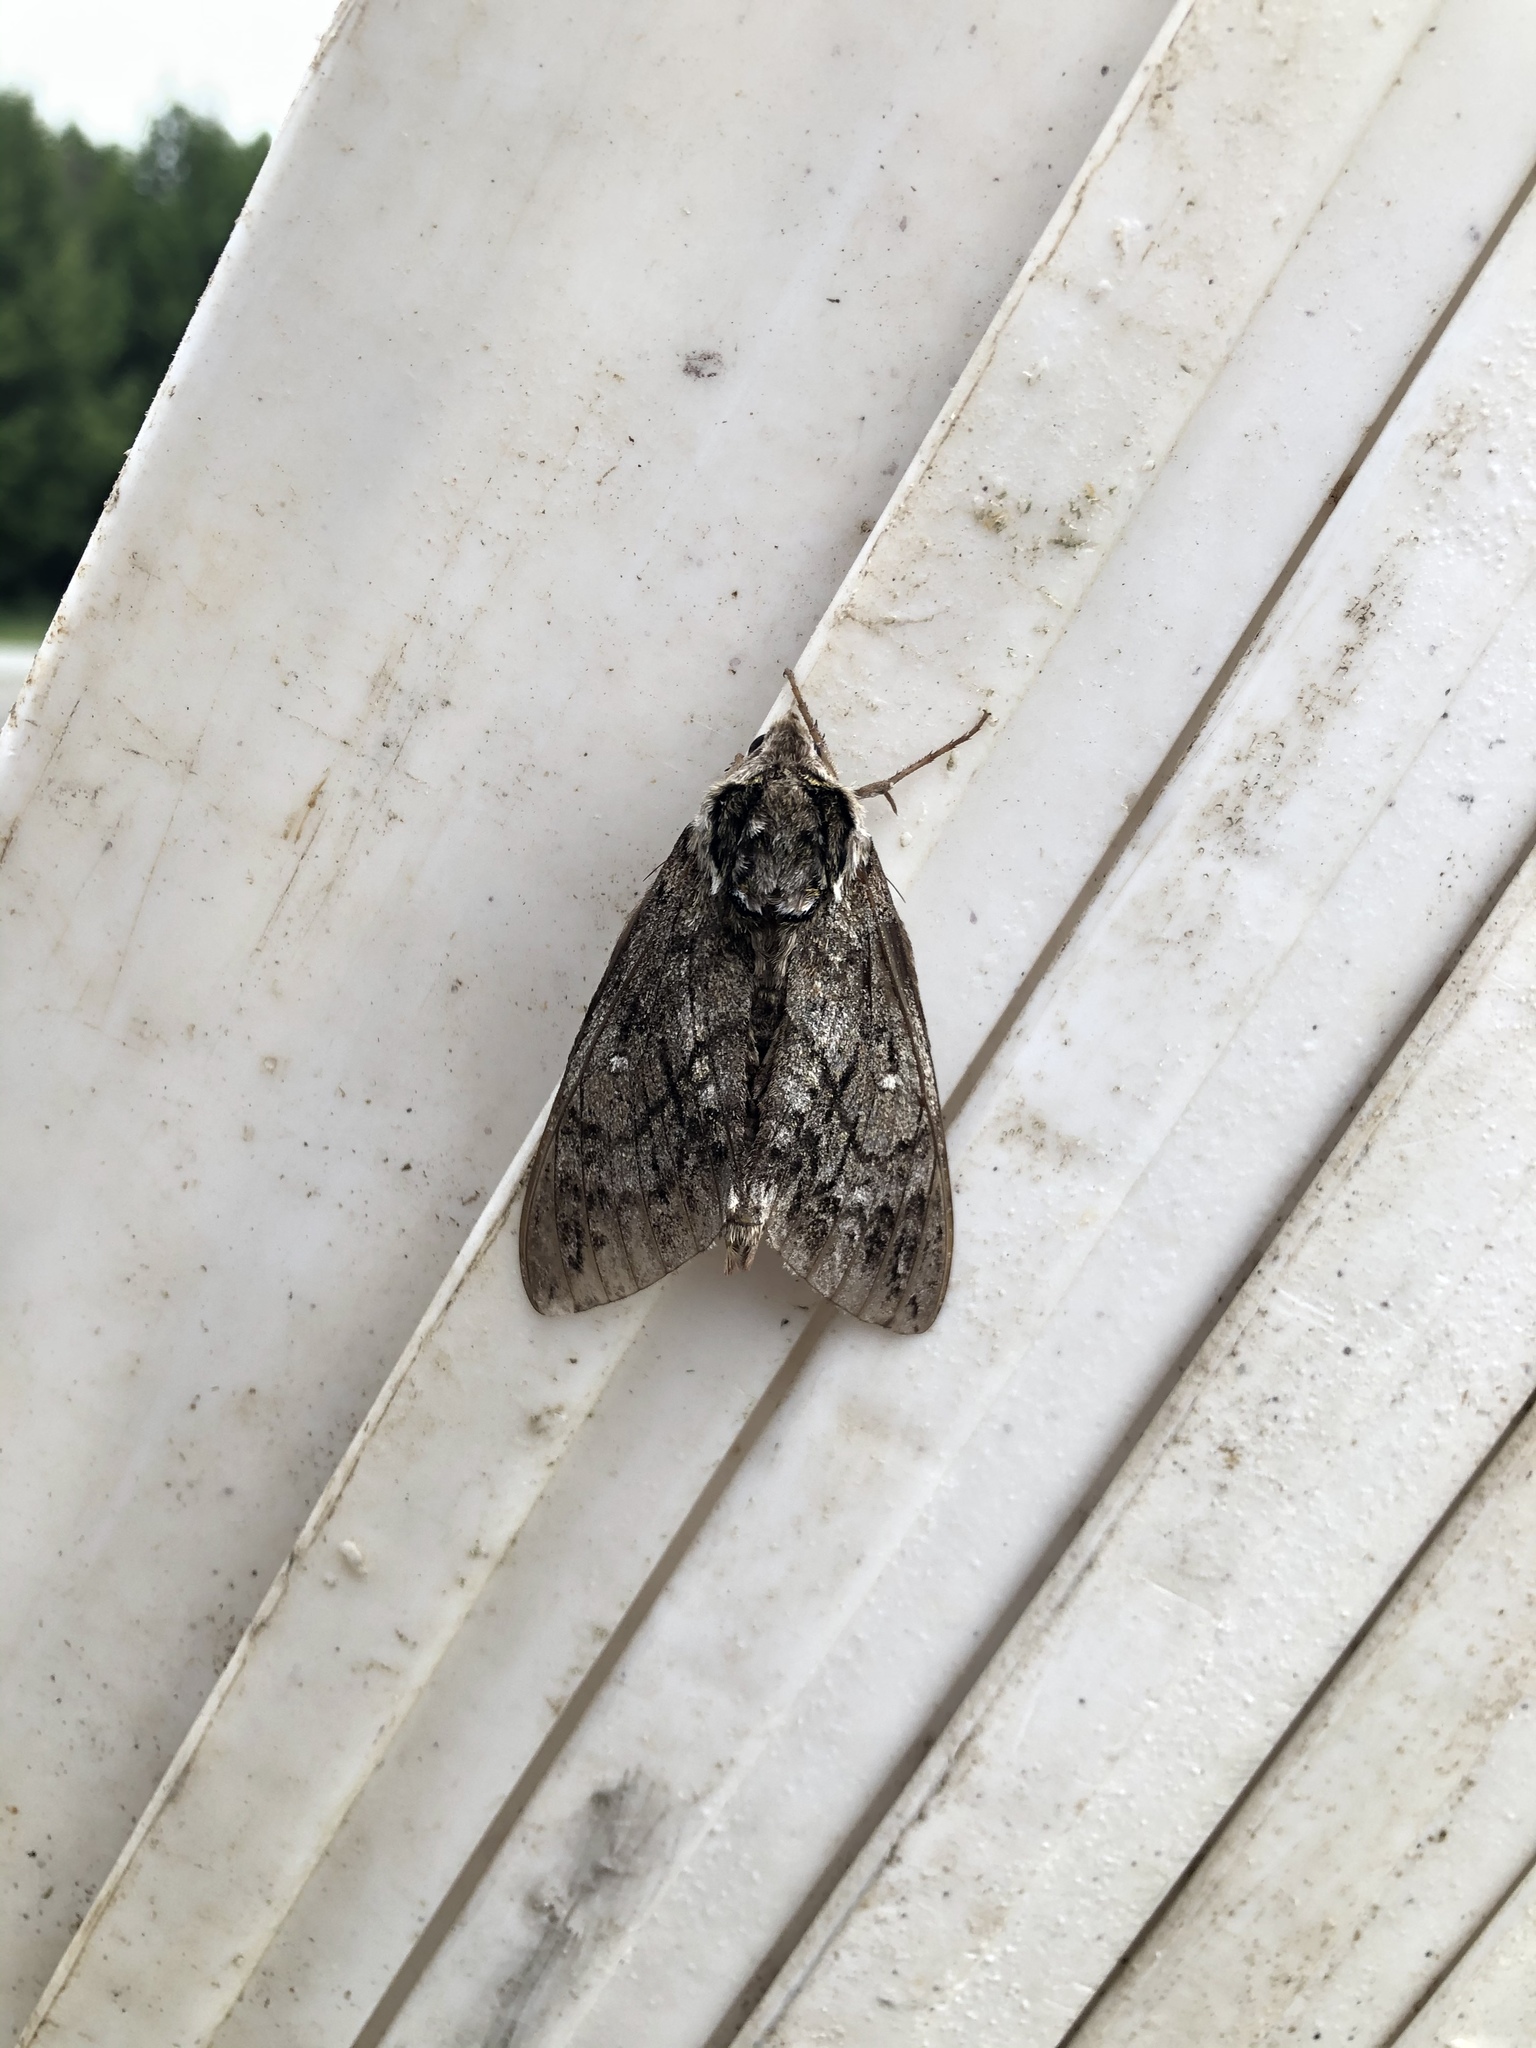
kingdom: Animalia
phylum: Arthropoda
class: Insecta
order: Lepidoptera
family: Sphingidae
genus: Ceratomia
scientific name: Ceratomia undulosa
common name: Waved sphinx
